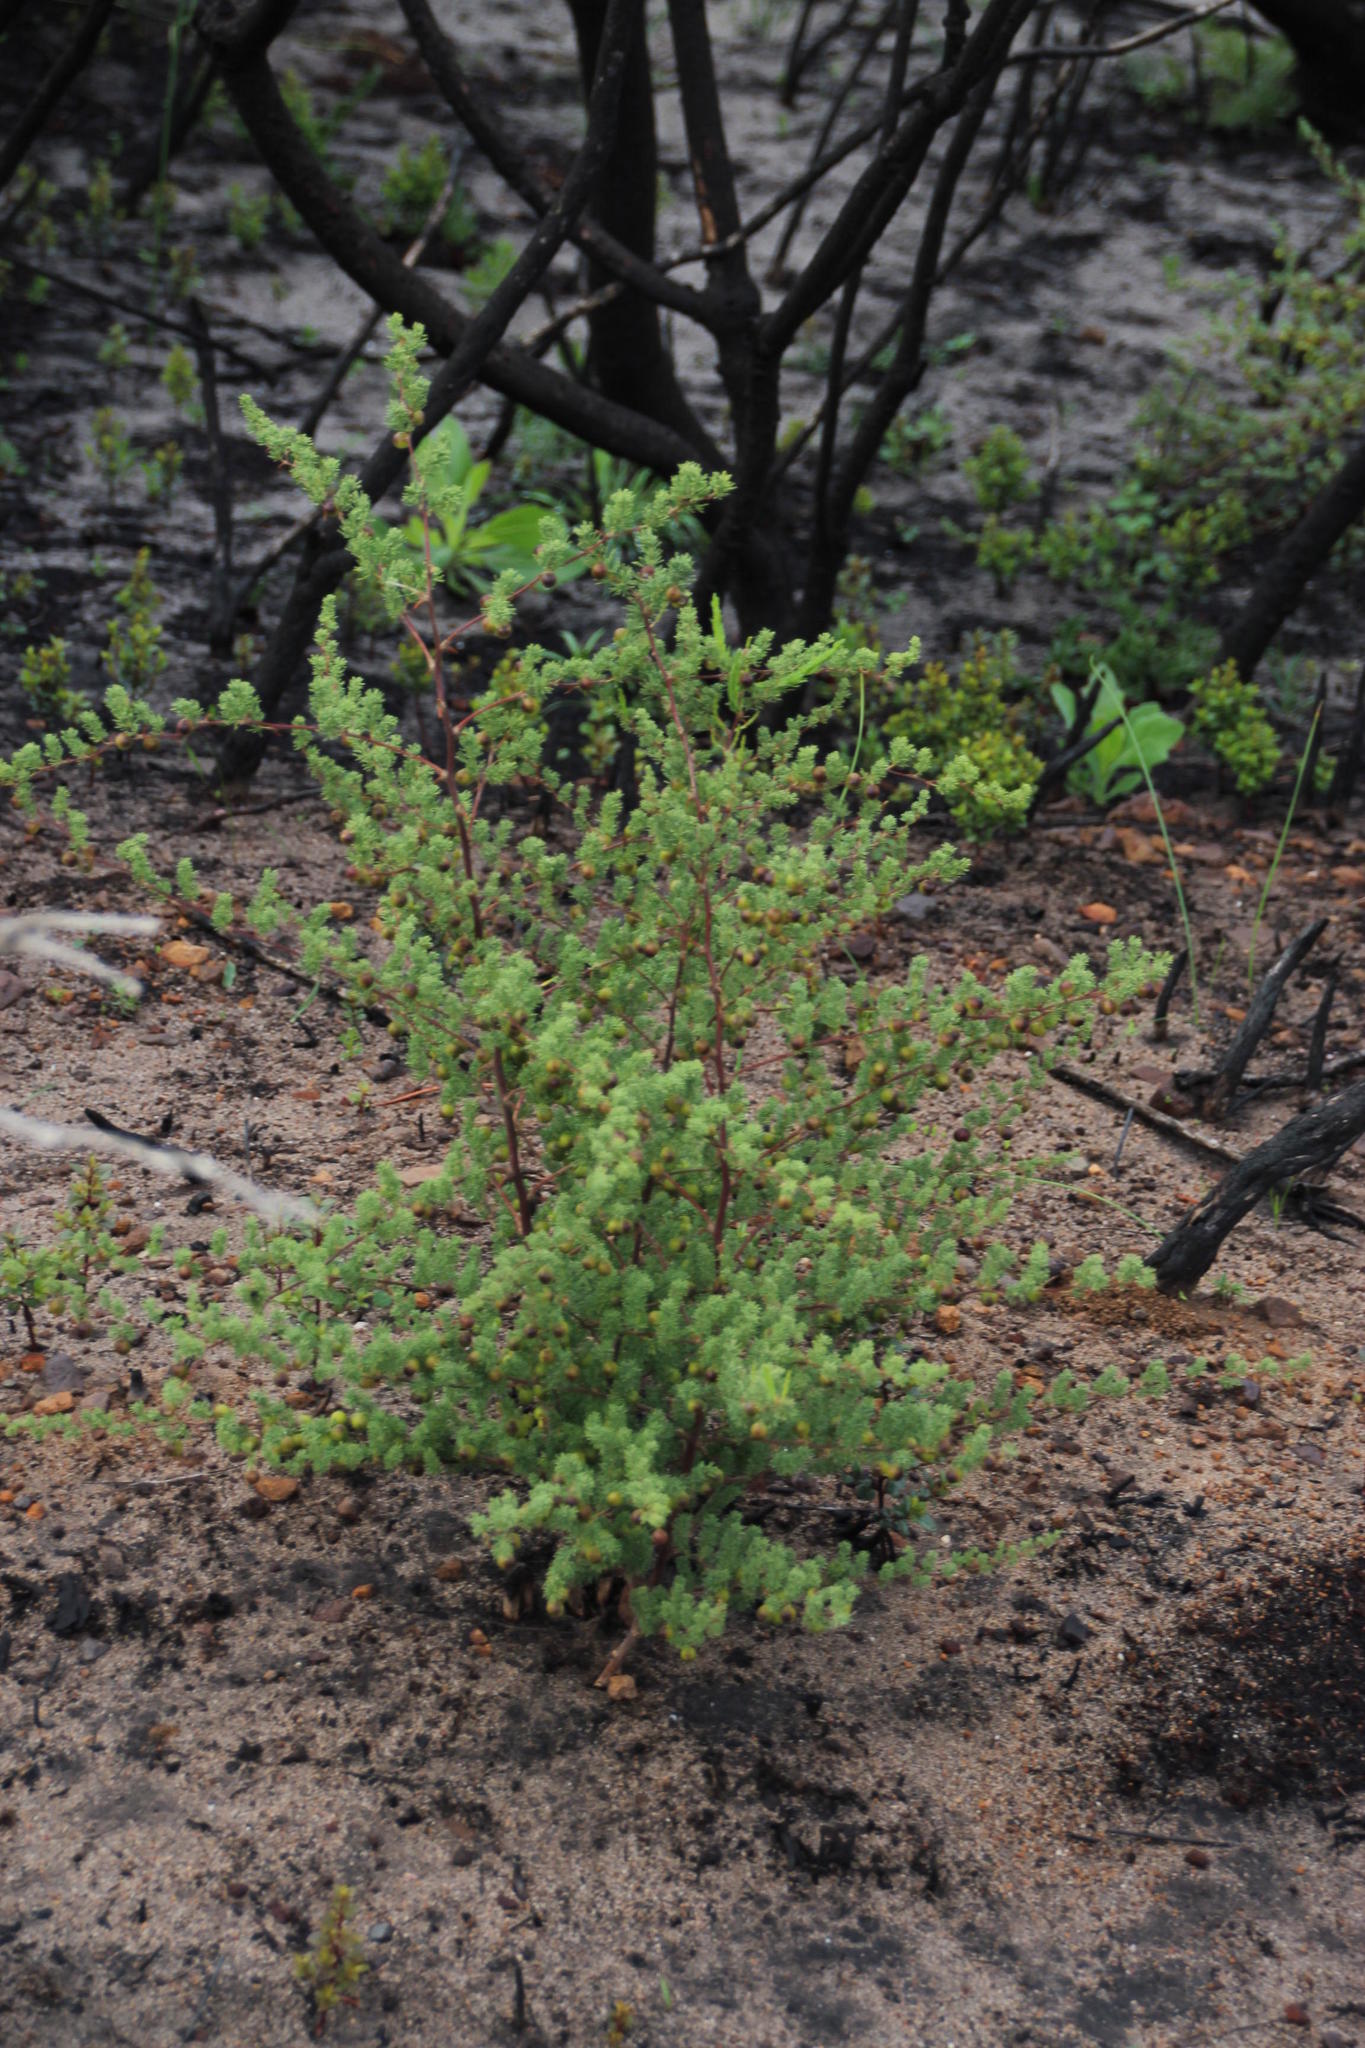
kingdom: Plantae
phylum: Tracheophyta
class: Liliopsida
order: Asparagales
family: Asparagaceae
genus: Asparagus
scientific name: Asparagus rubicundus
